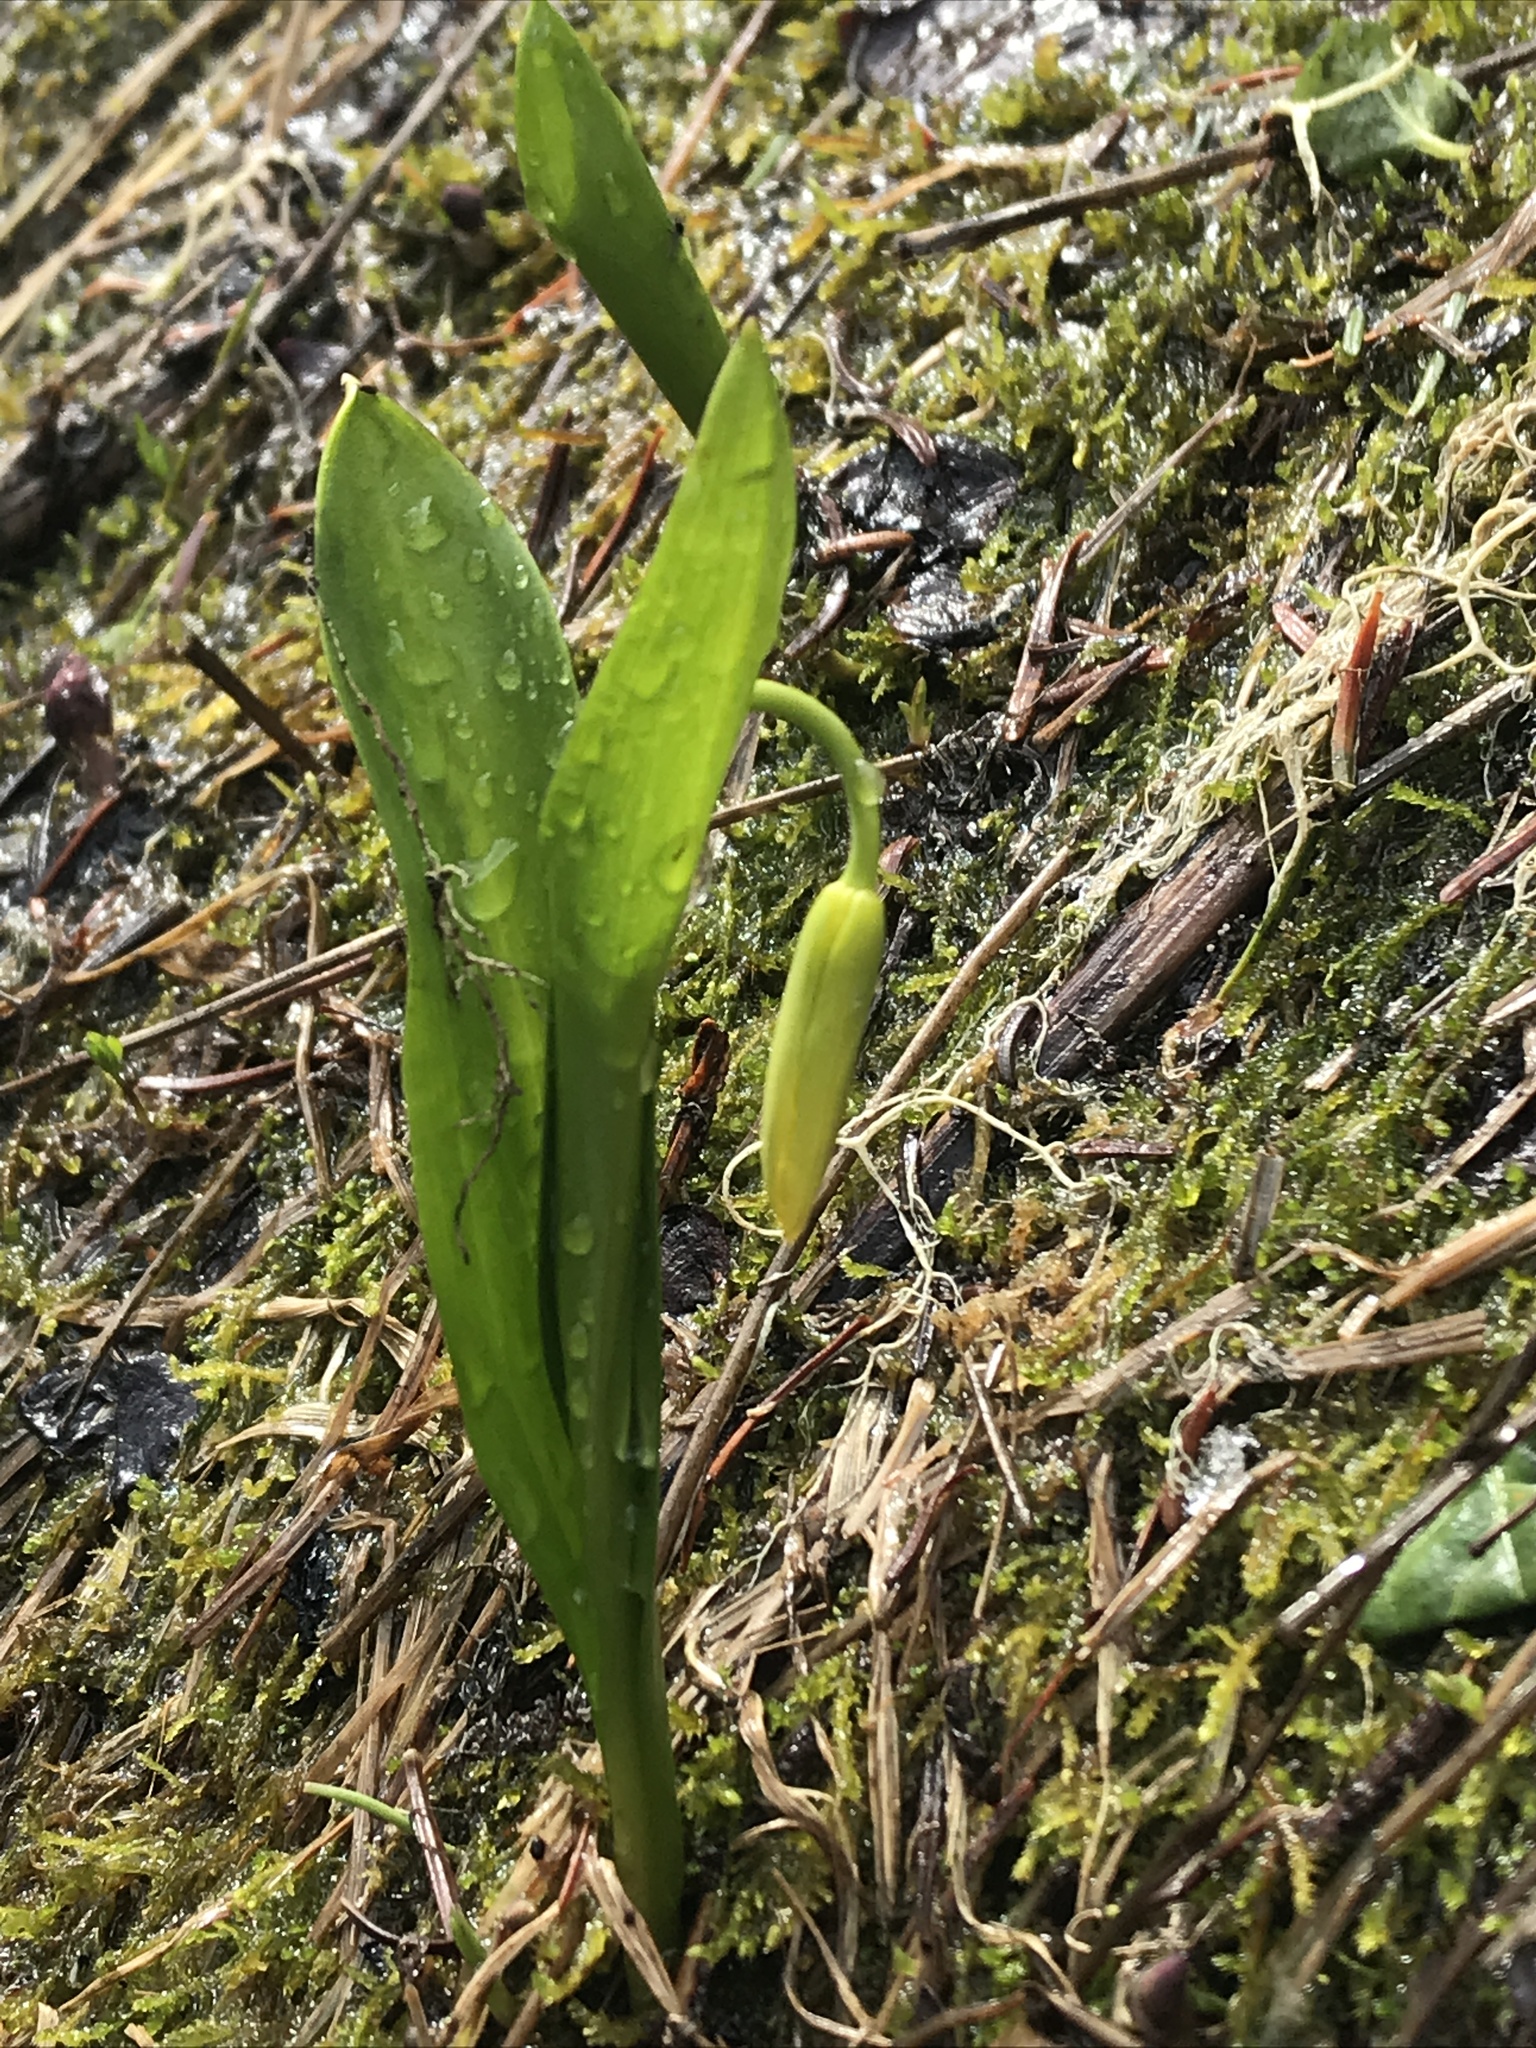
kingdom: Plantae
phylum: Tracheophyta
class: Liliopsida
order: Liliales
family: Liliaceae
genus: Erythronium
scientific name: Erythronium grandiflorum
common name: Avalanche-lily
